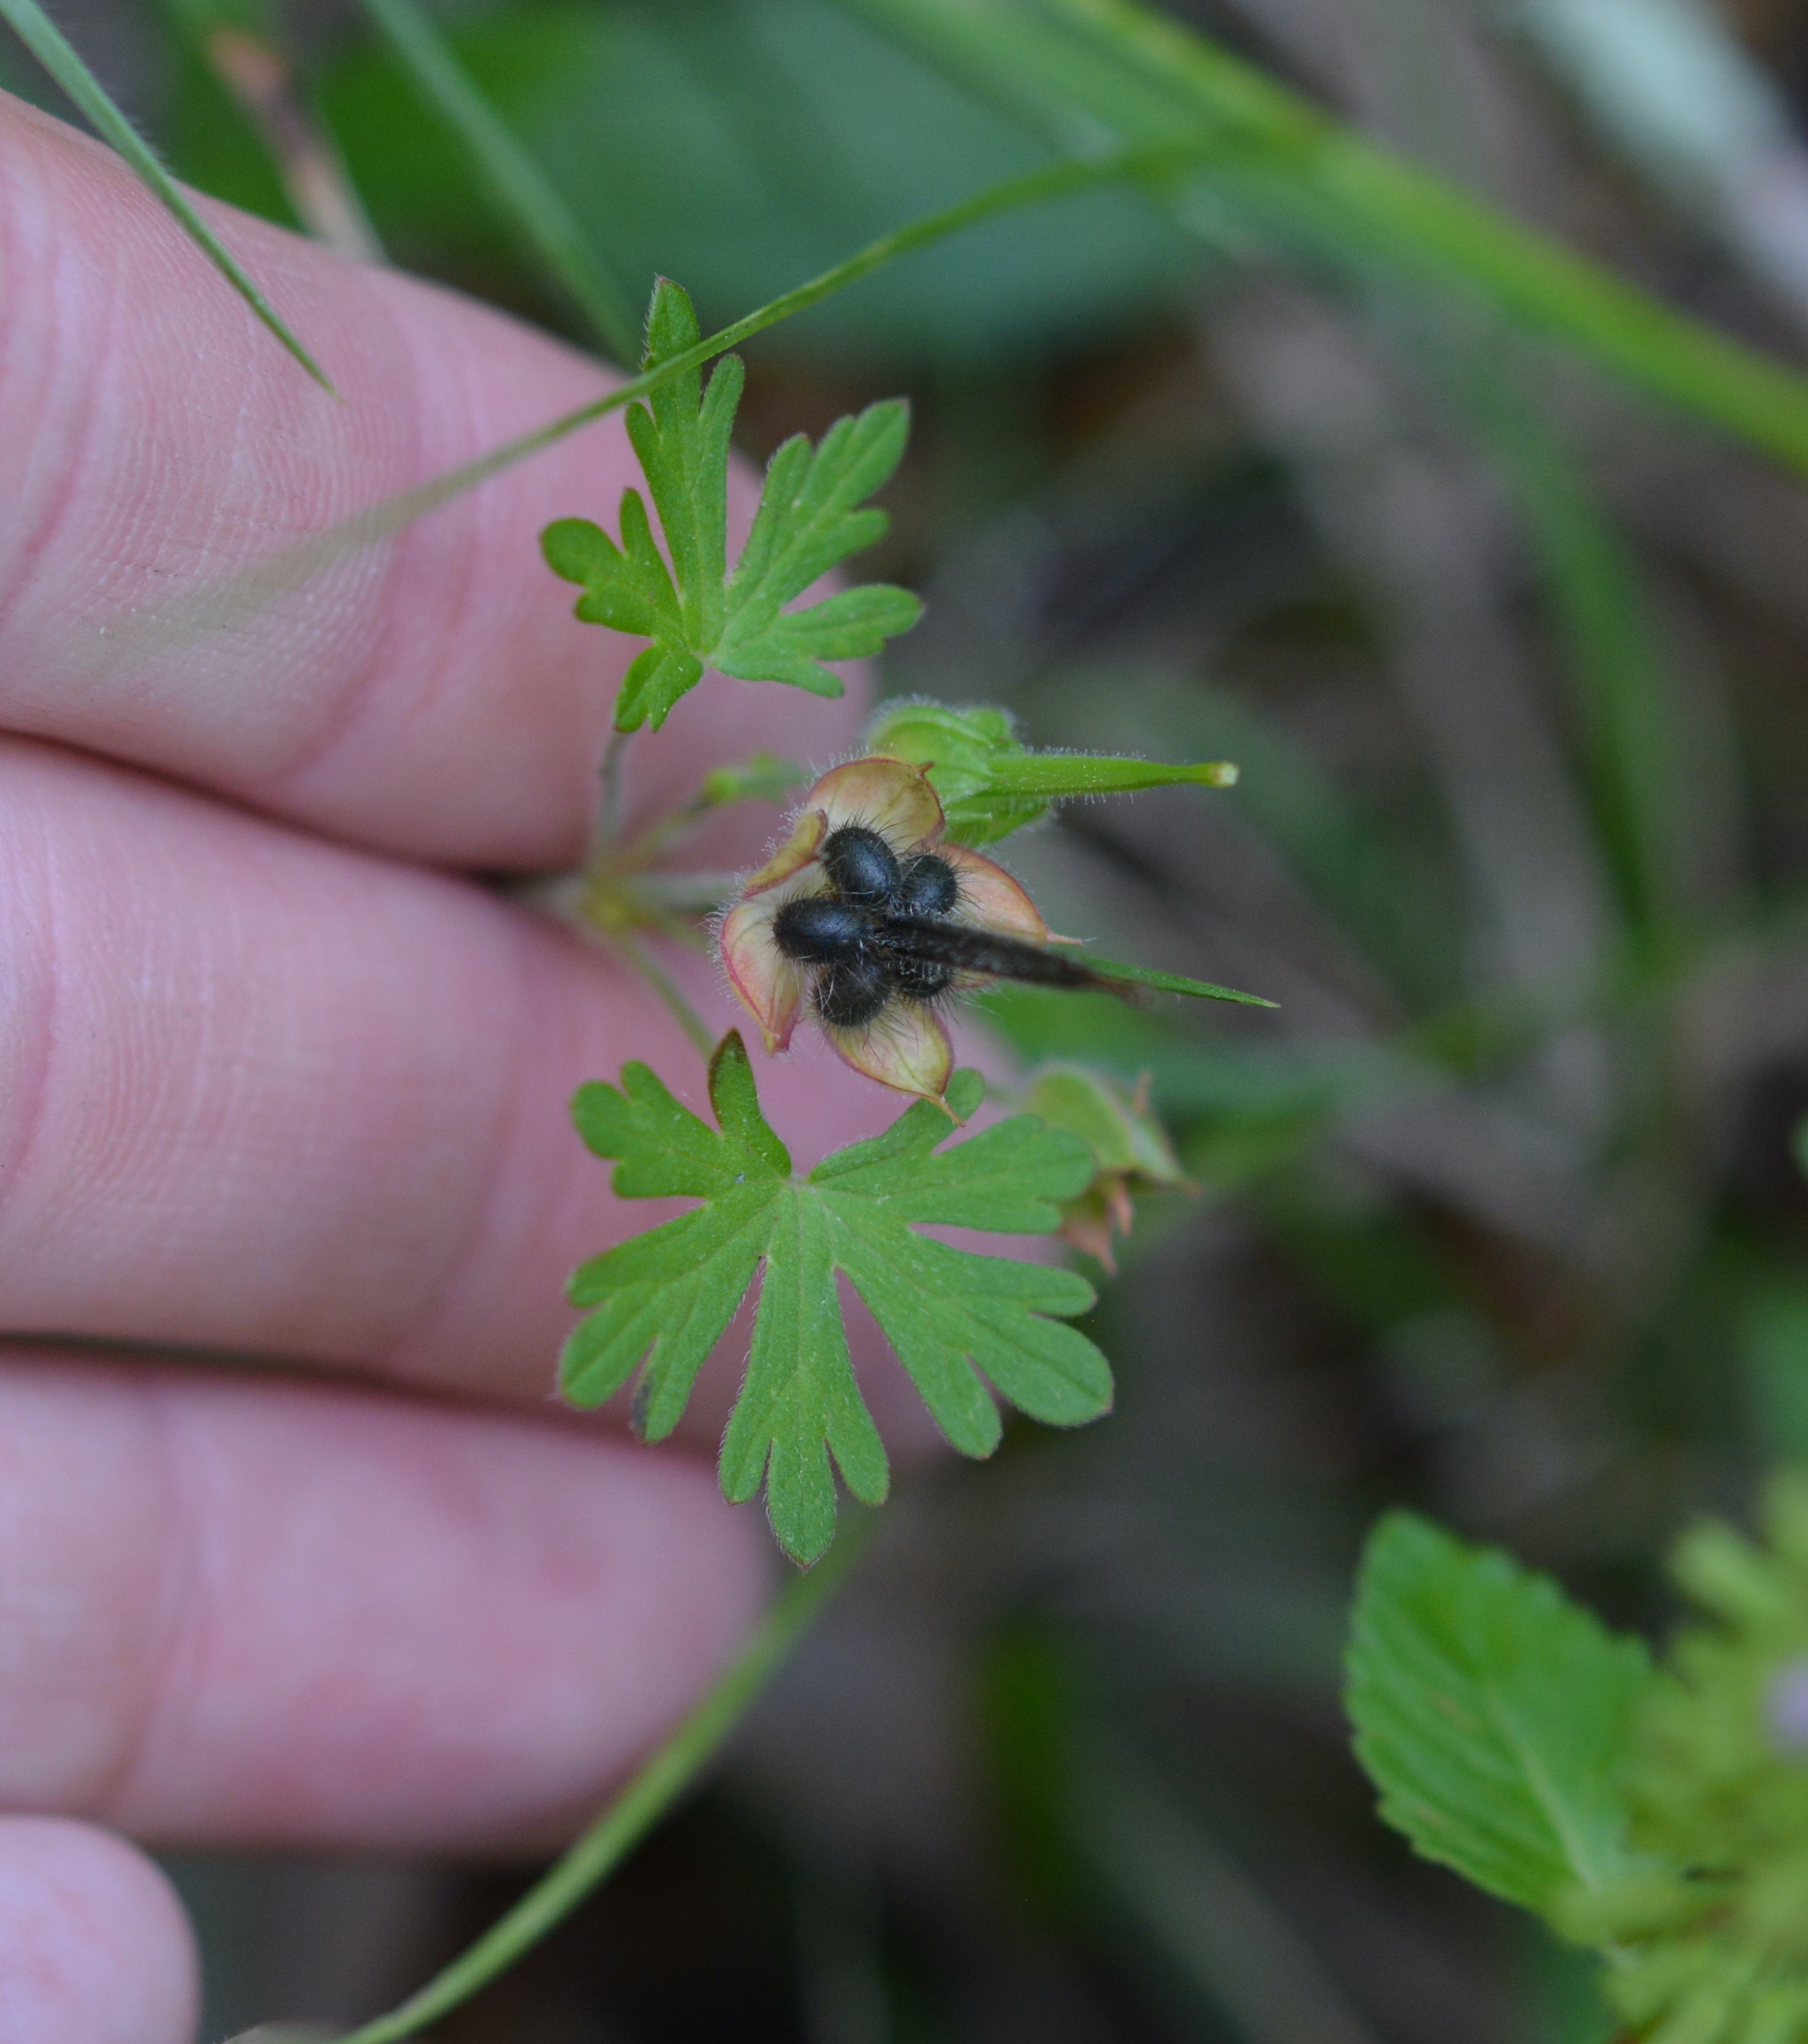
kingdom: Plantae
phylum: Tracheophyta
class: Magnoliopsida
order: Geraniales
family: Geraniaceae
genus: Geranium
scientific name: Geranium carolinianum
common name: Carolina crane's-bill
